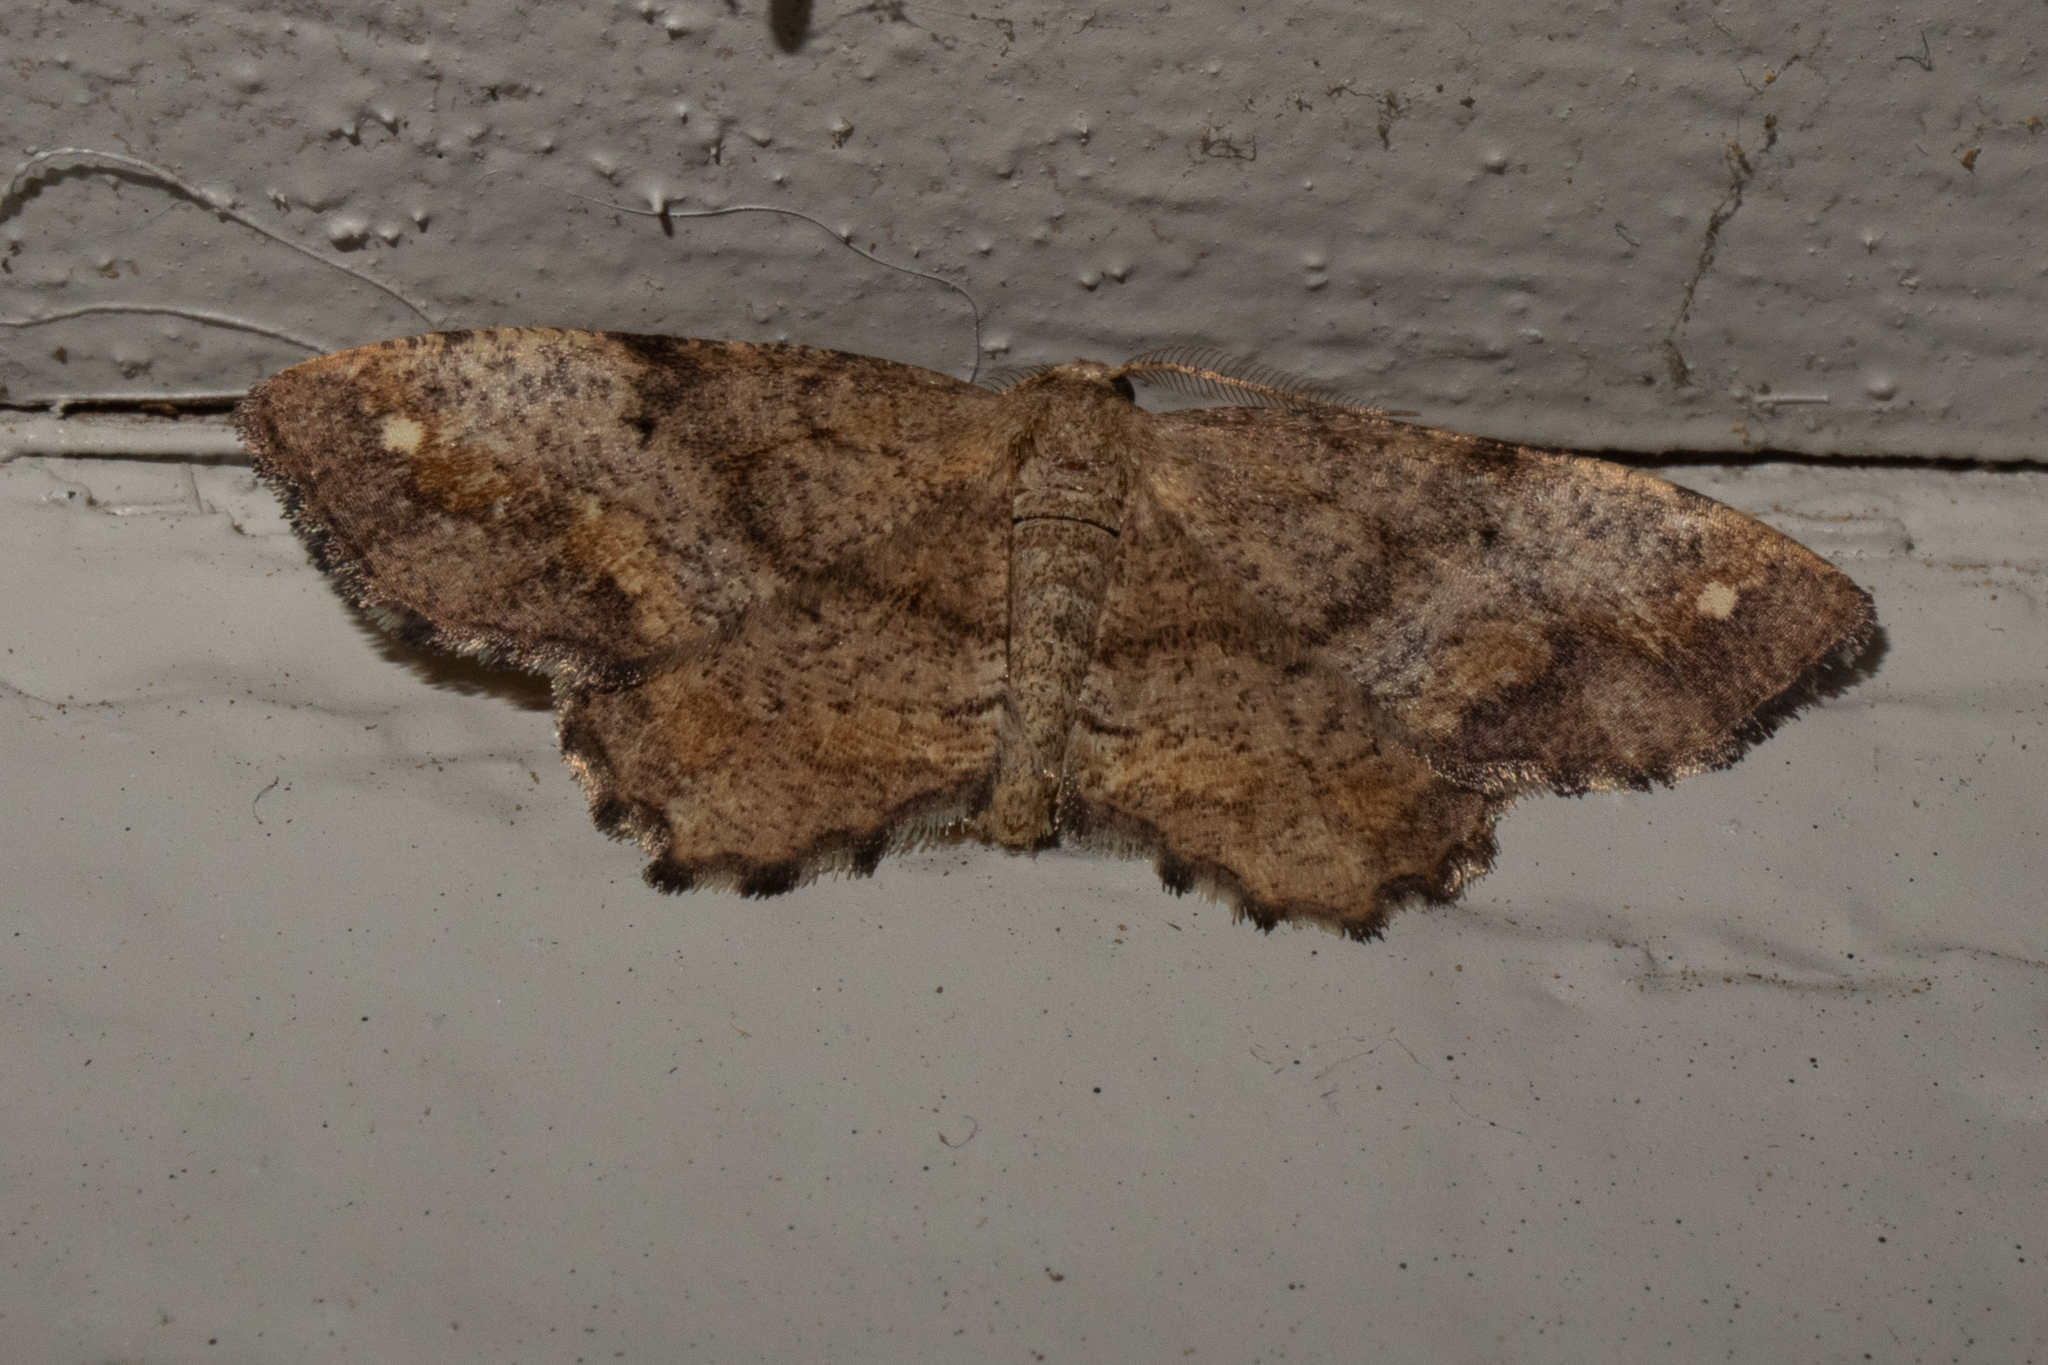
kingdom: Animalia
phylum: Arthropoda
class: Insecta
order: Lepidoptera
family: Geometridae
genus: Hypagyrtis
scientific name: Hypagyrtis unipunctata
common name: One-spotted variant
